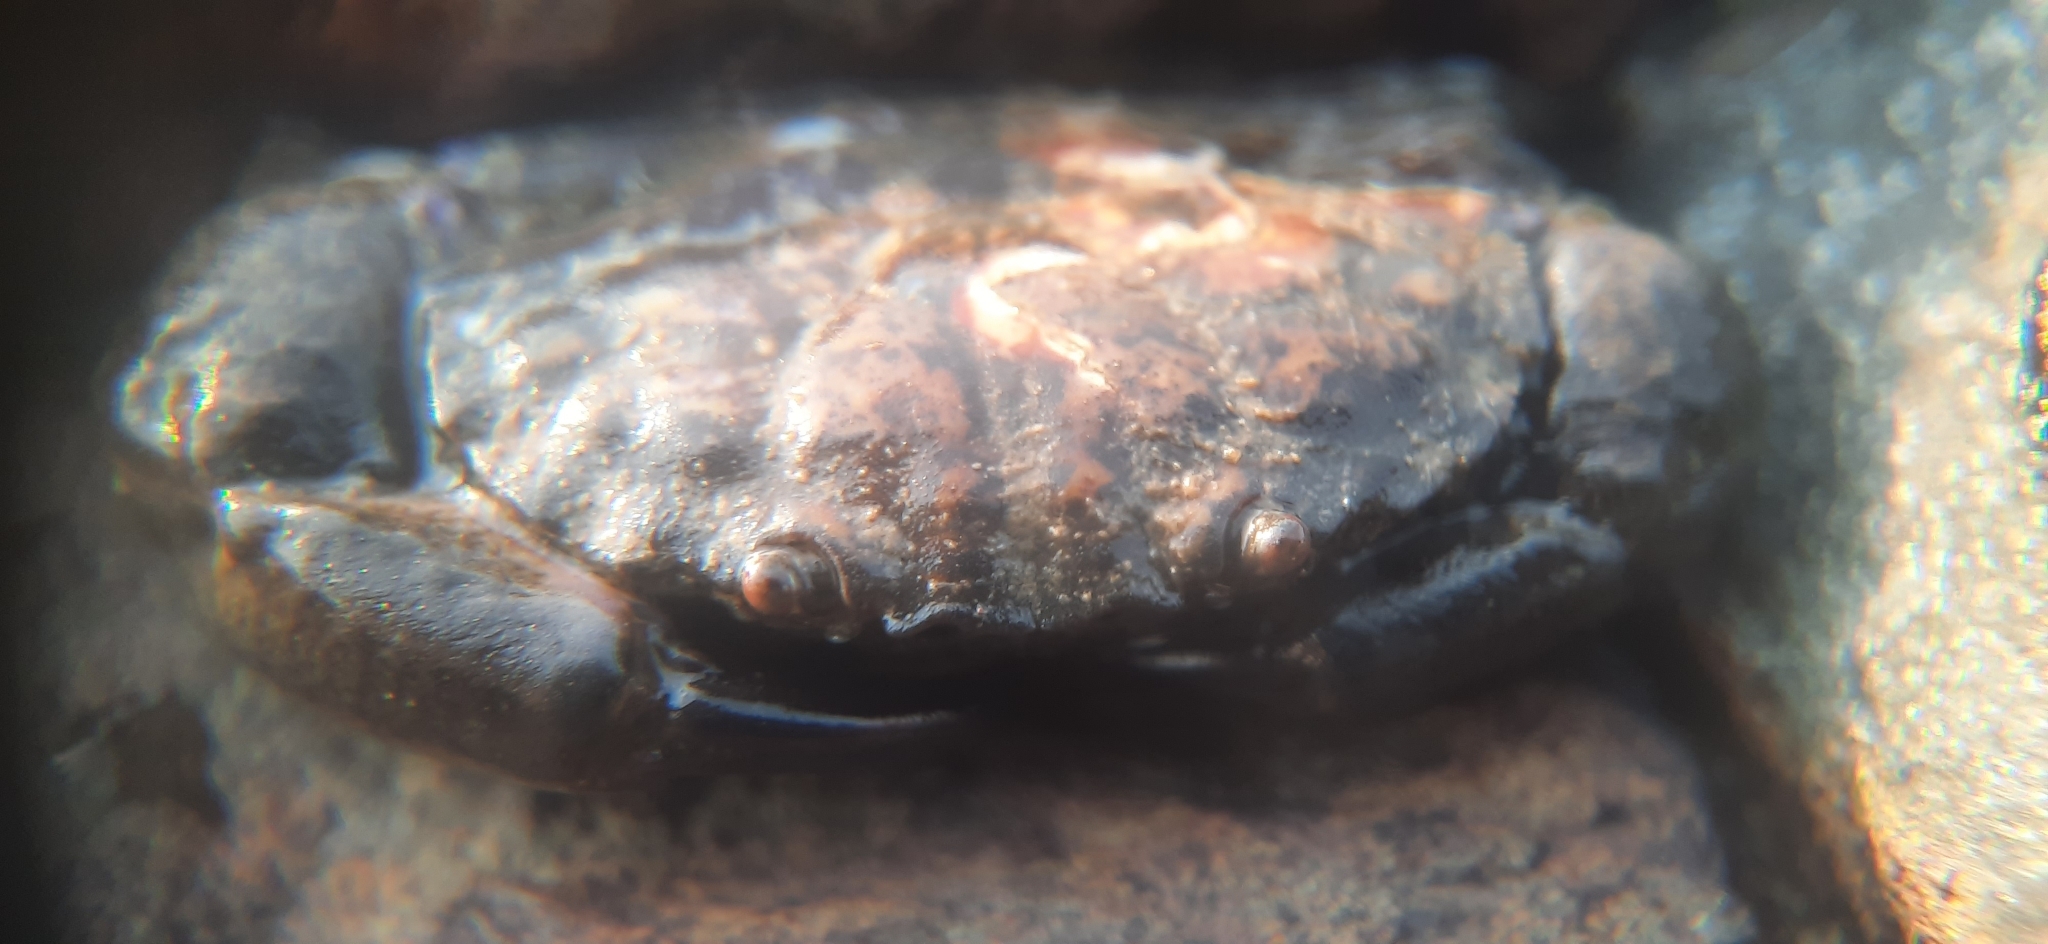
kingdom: Animalia
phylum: Arthropoda
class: Malacostraca
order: Decapoda
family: Menippidae
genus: Myomenippe
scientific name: Myomenippe hardwickii
